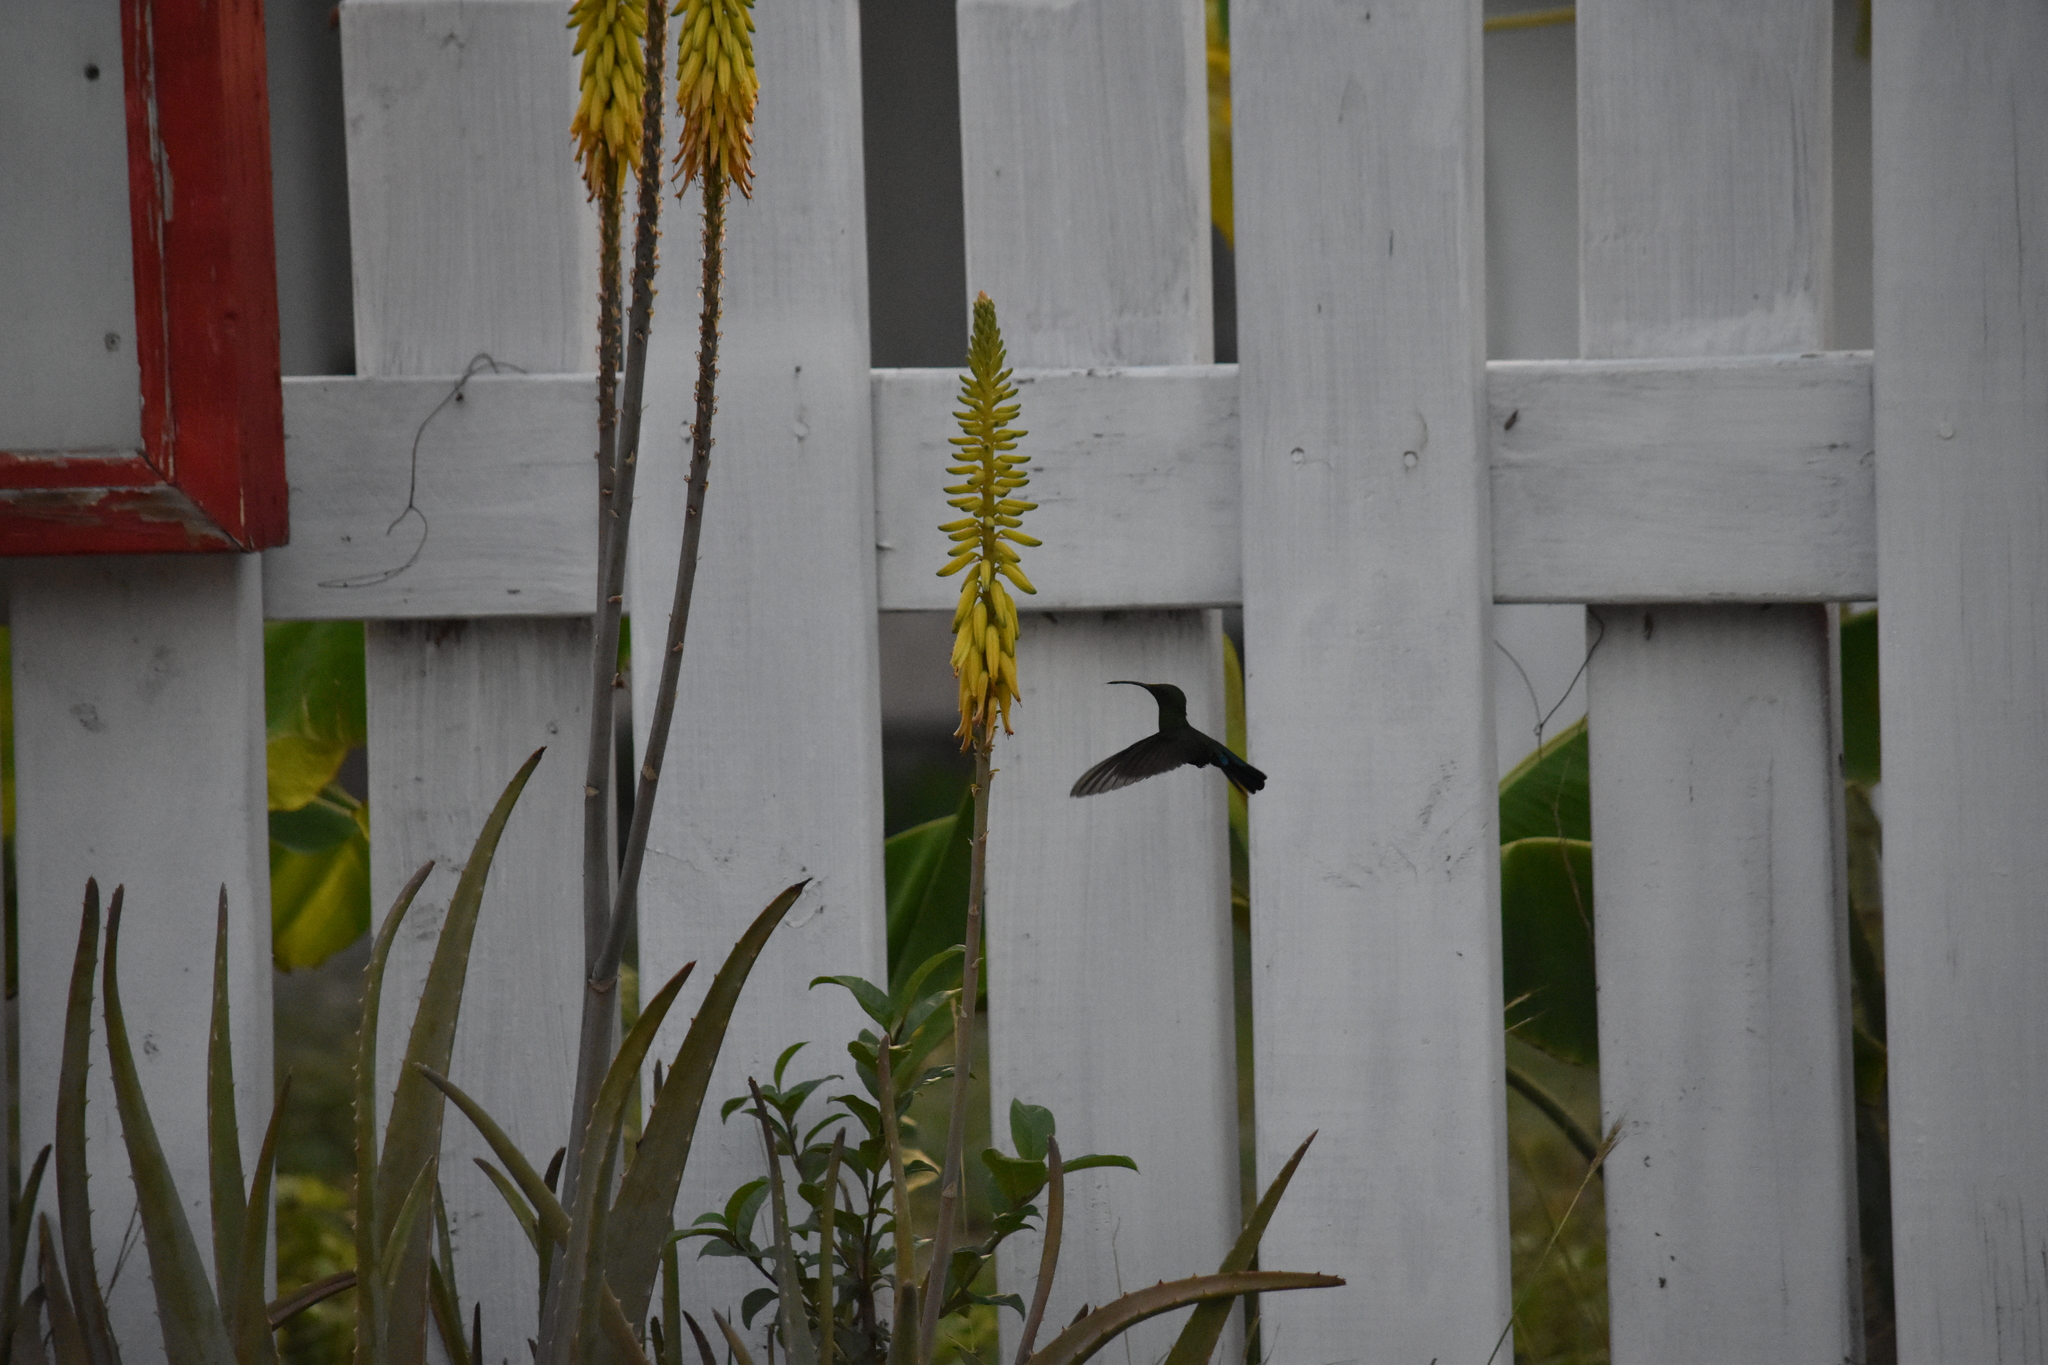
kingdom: Animalia
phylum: Chordata
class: Aves
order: Apodiformes
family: Trochilidae
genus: Eulampis
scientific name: Eulampis holosericeus
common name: Green-throated carib
